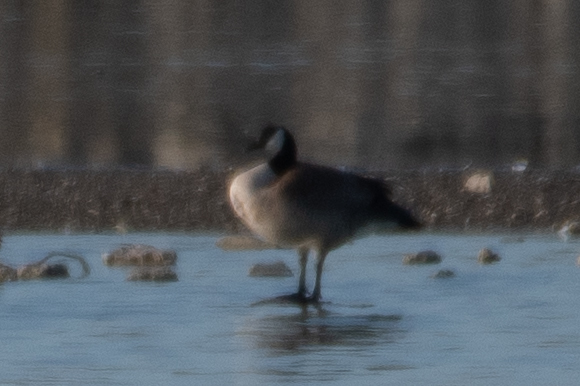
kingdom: Animalia
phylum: Chordata
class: Aves
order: Anseriformes
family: Anatidae
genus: Branta
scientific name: Branta canadensis
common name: Canada goose
